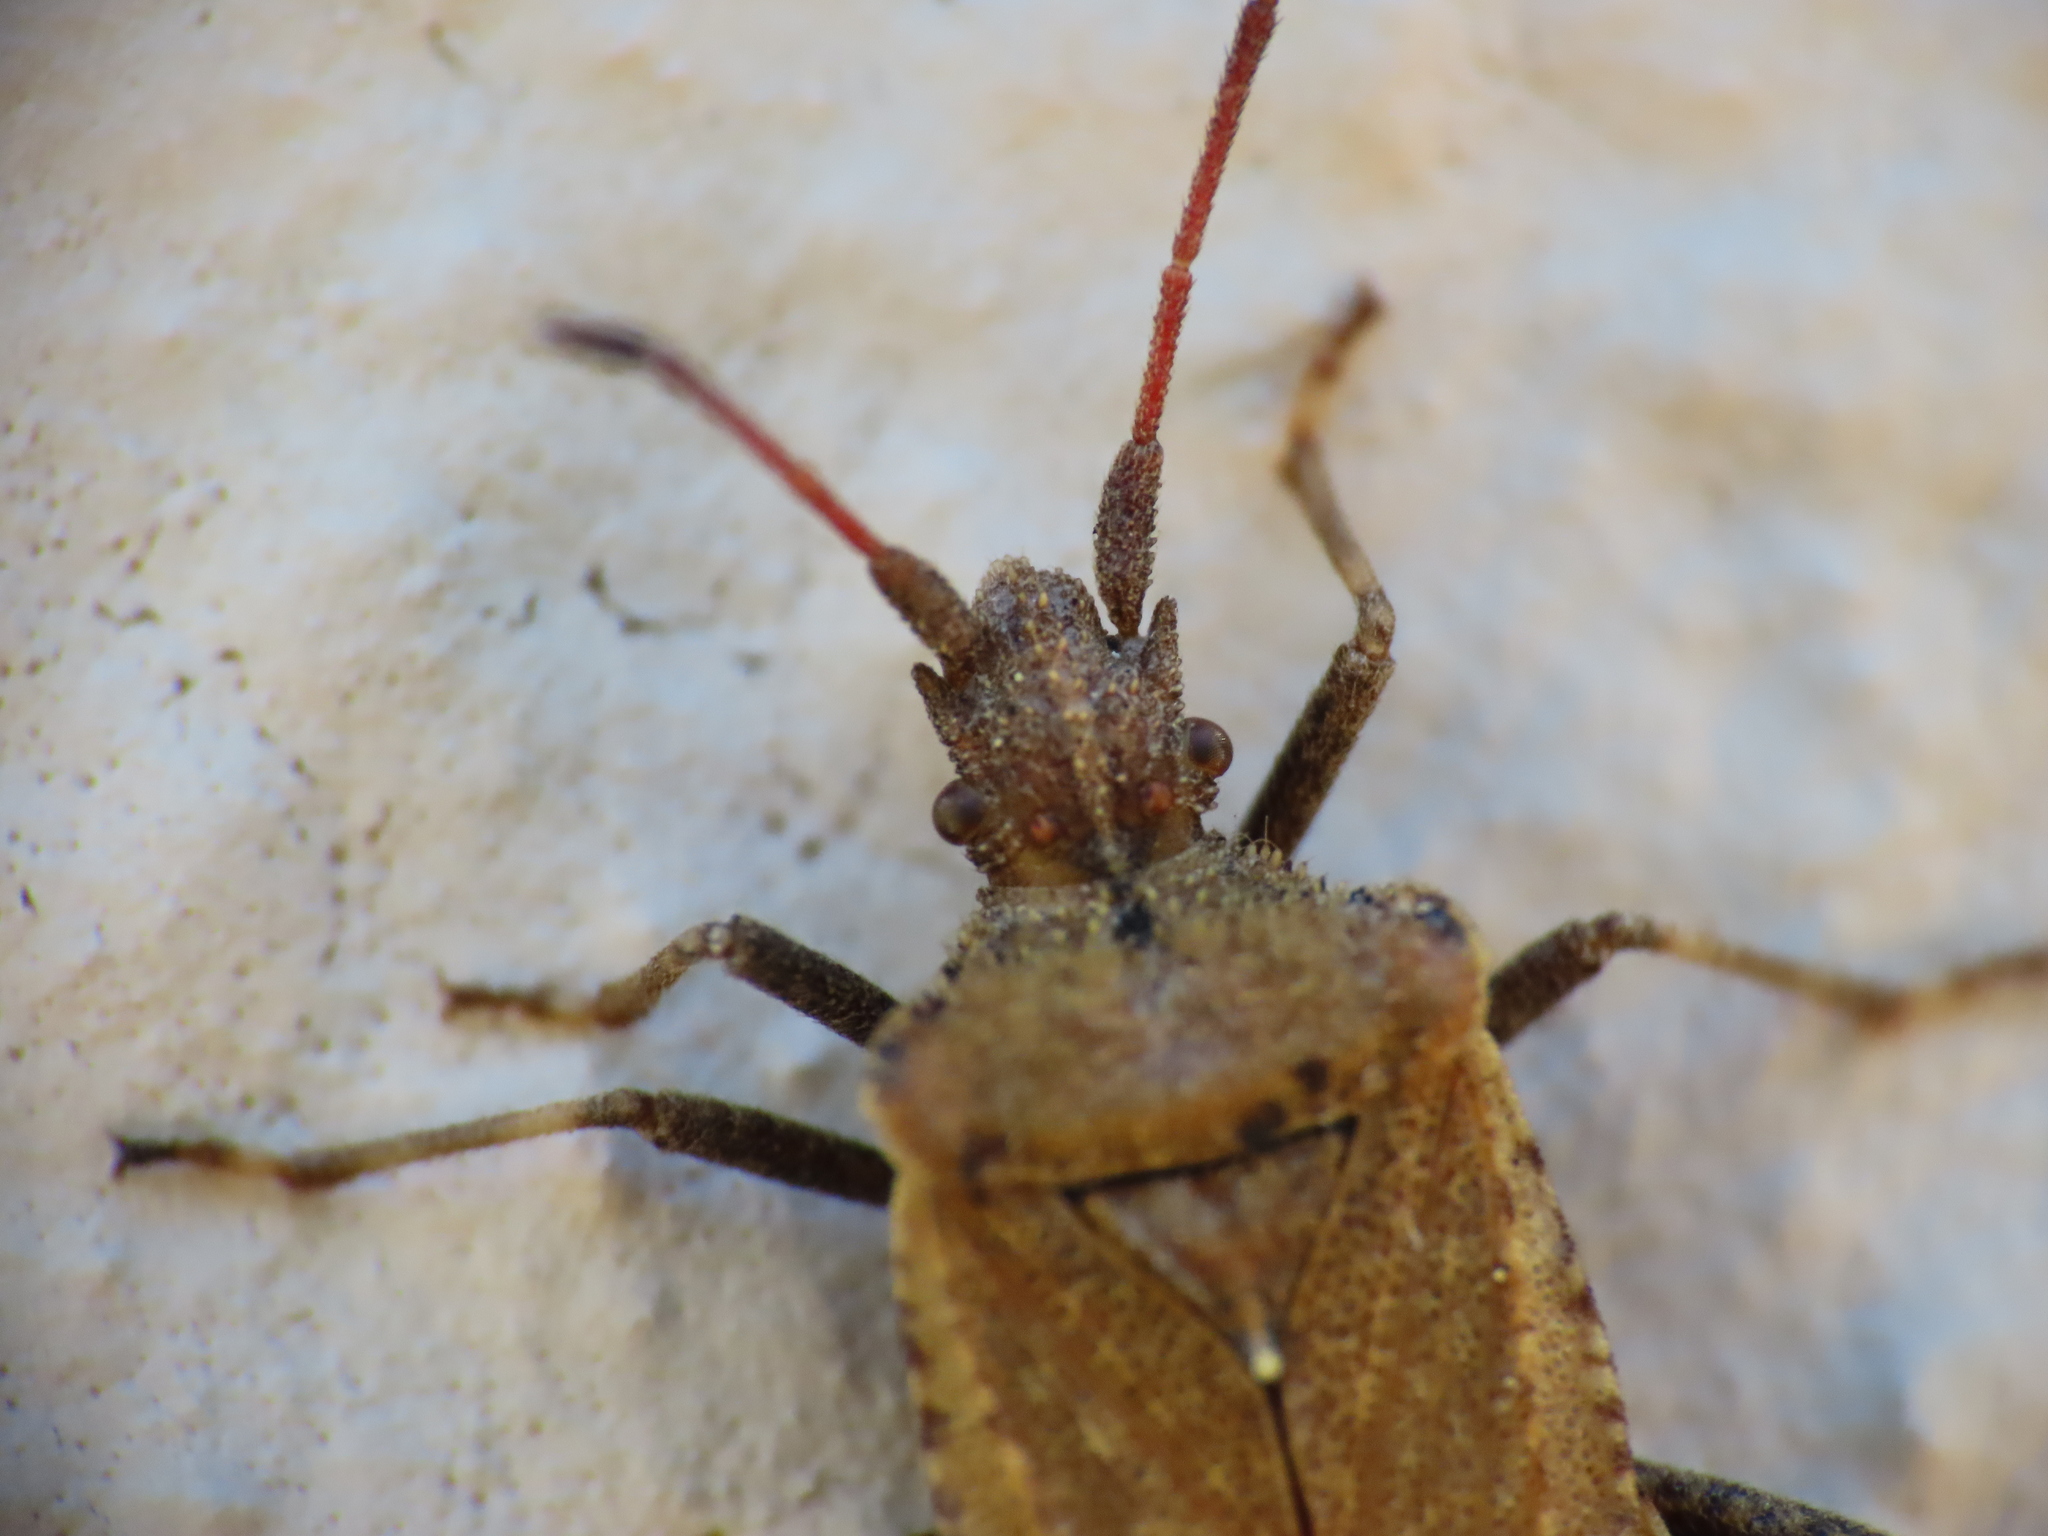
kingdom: Animalia
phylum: Arthropoda
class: Insecta
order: Hemiptera
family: Coreidae
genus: Anoplocerus
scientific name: Anoplocerus elevatus
